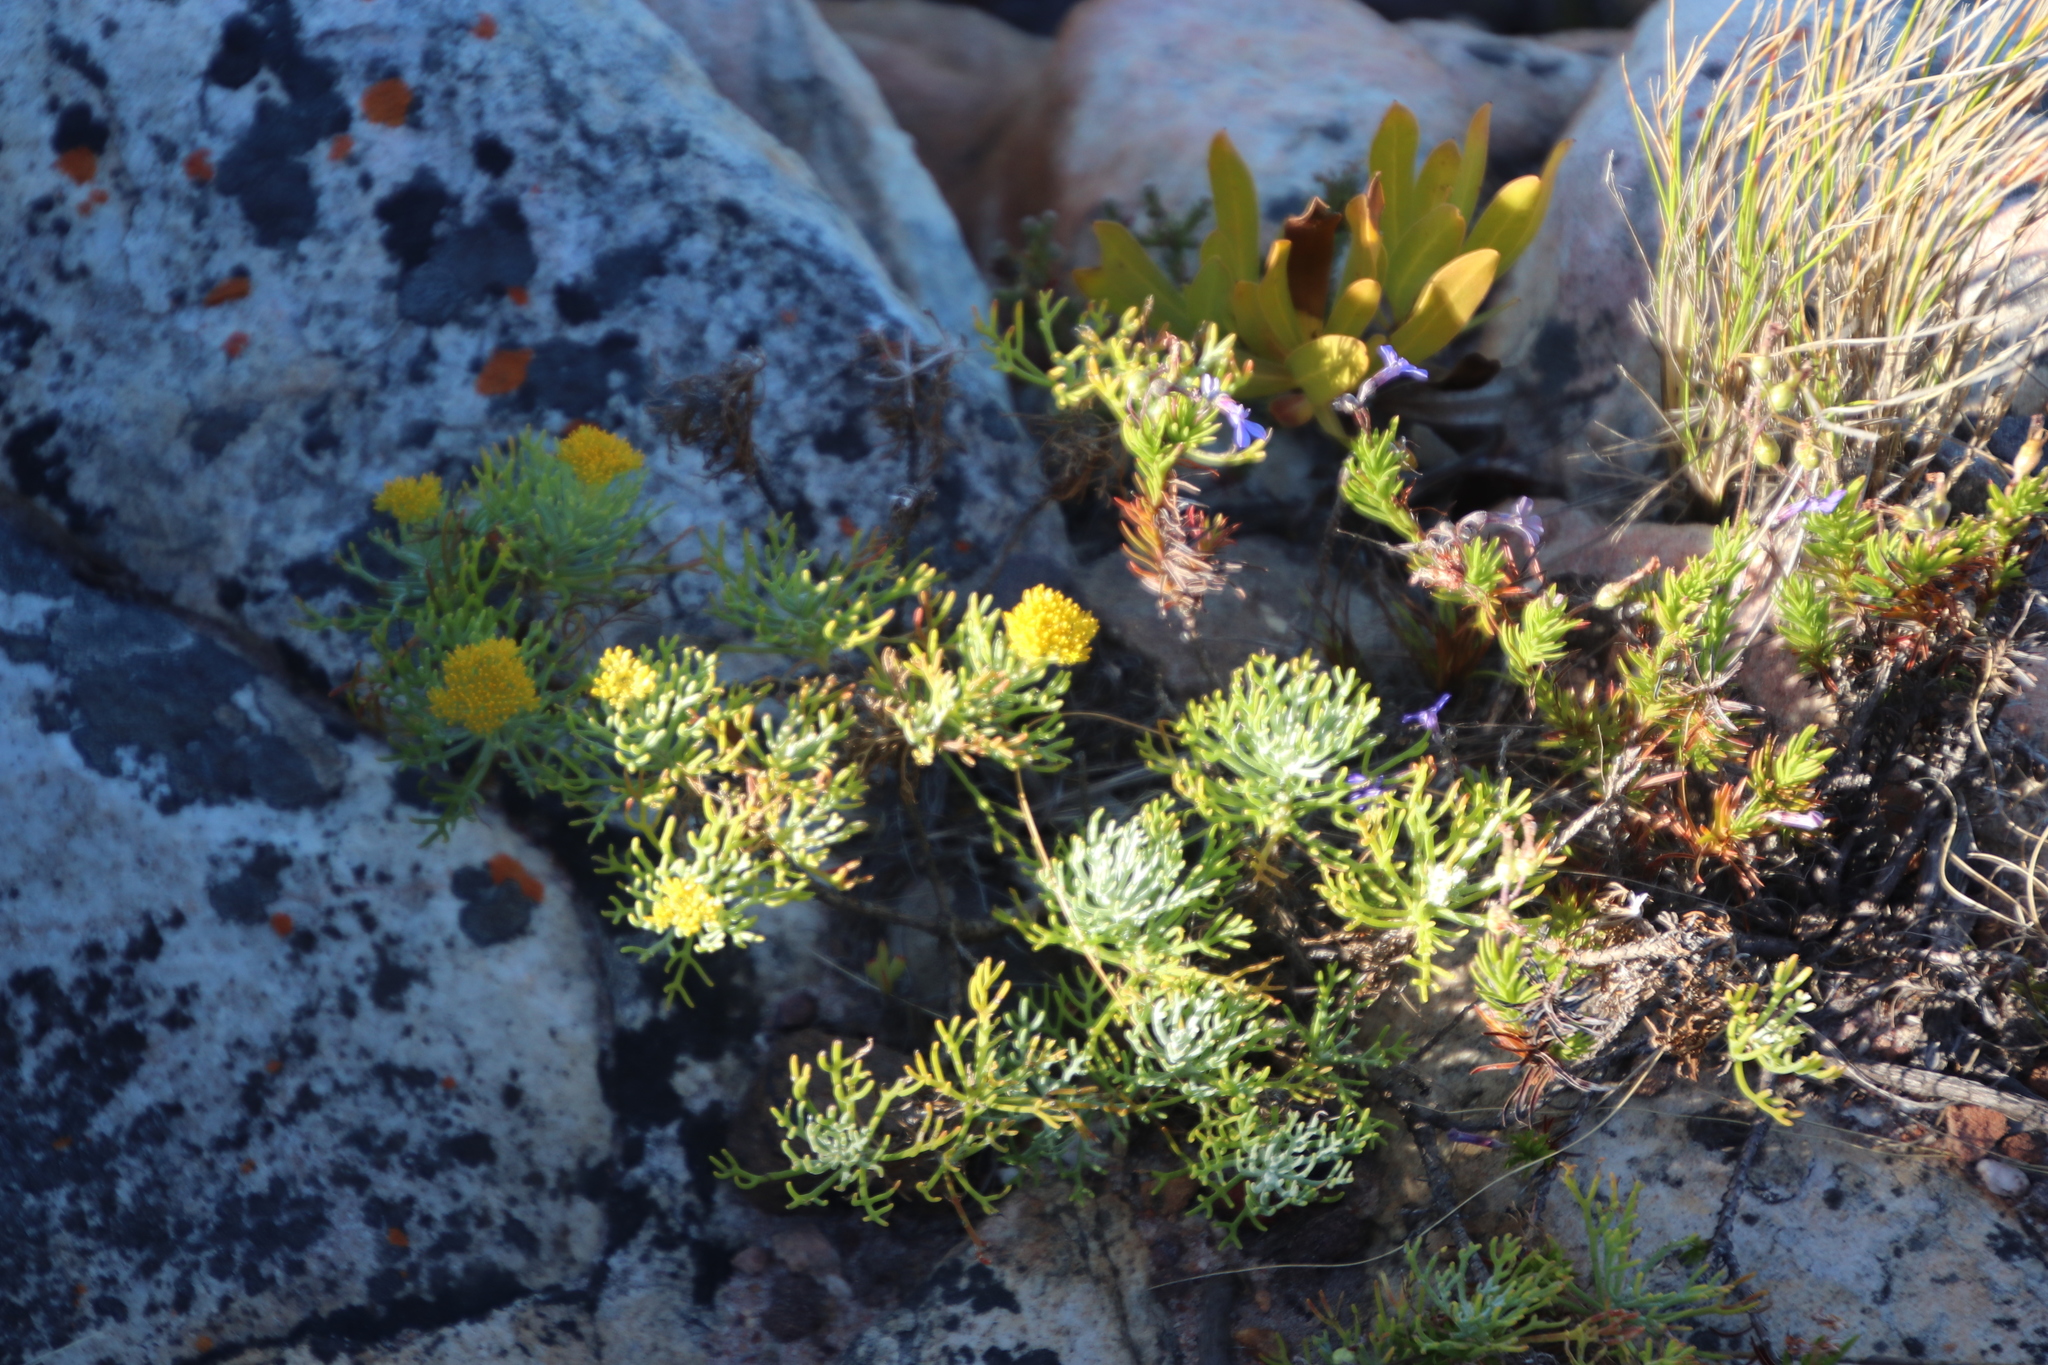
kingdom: Plantae
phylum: Tracheophyta
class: Magnoliopsida
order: Asterales
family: Asteraceae
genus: Athanasia
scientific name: Athanasia crithmifolia
